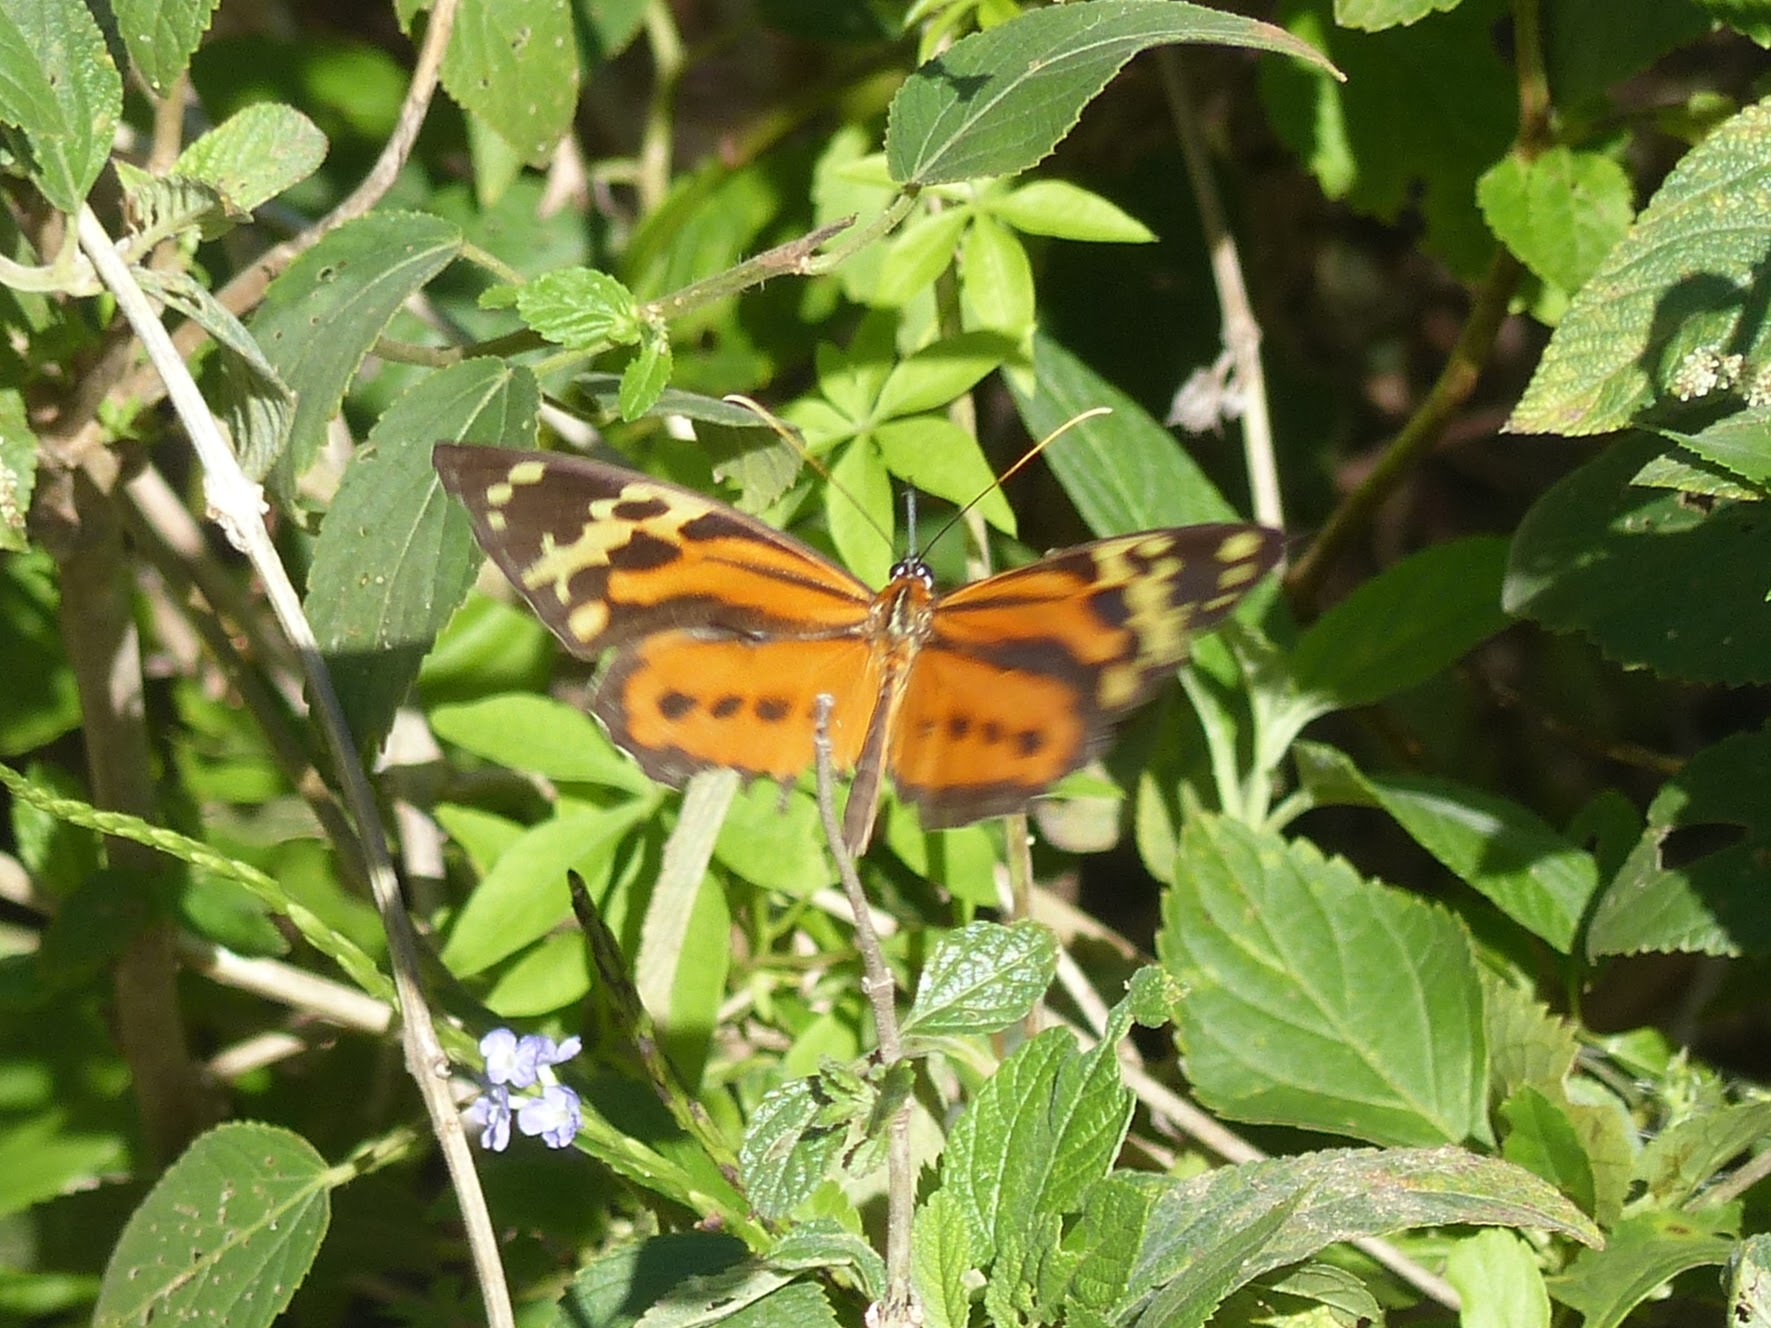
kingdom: Animalia
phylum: Arthropoda
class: Insecta
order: Lepidoptera
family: Nymphalidae
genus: Tithorea
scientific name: Tithorea harmonia
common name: Harmonia tigerwing
